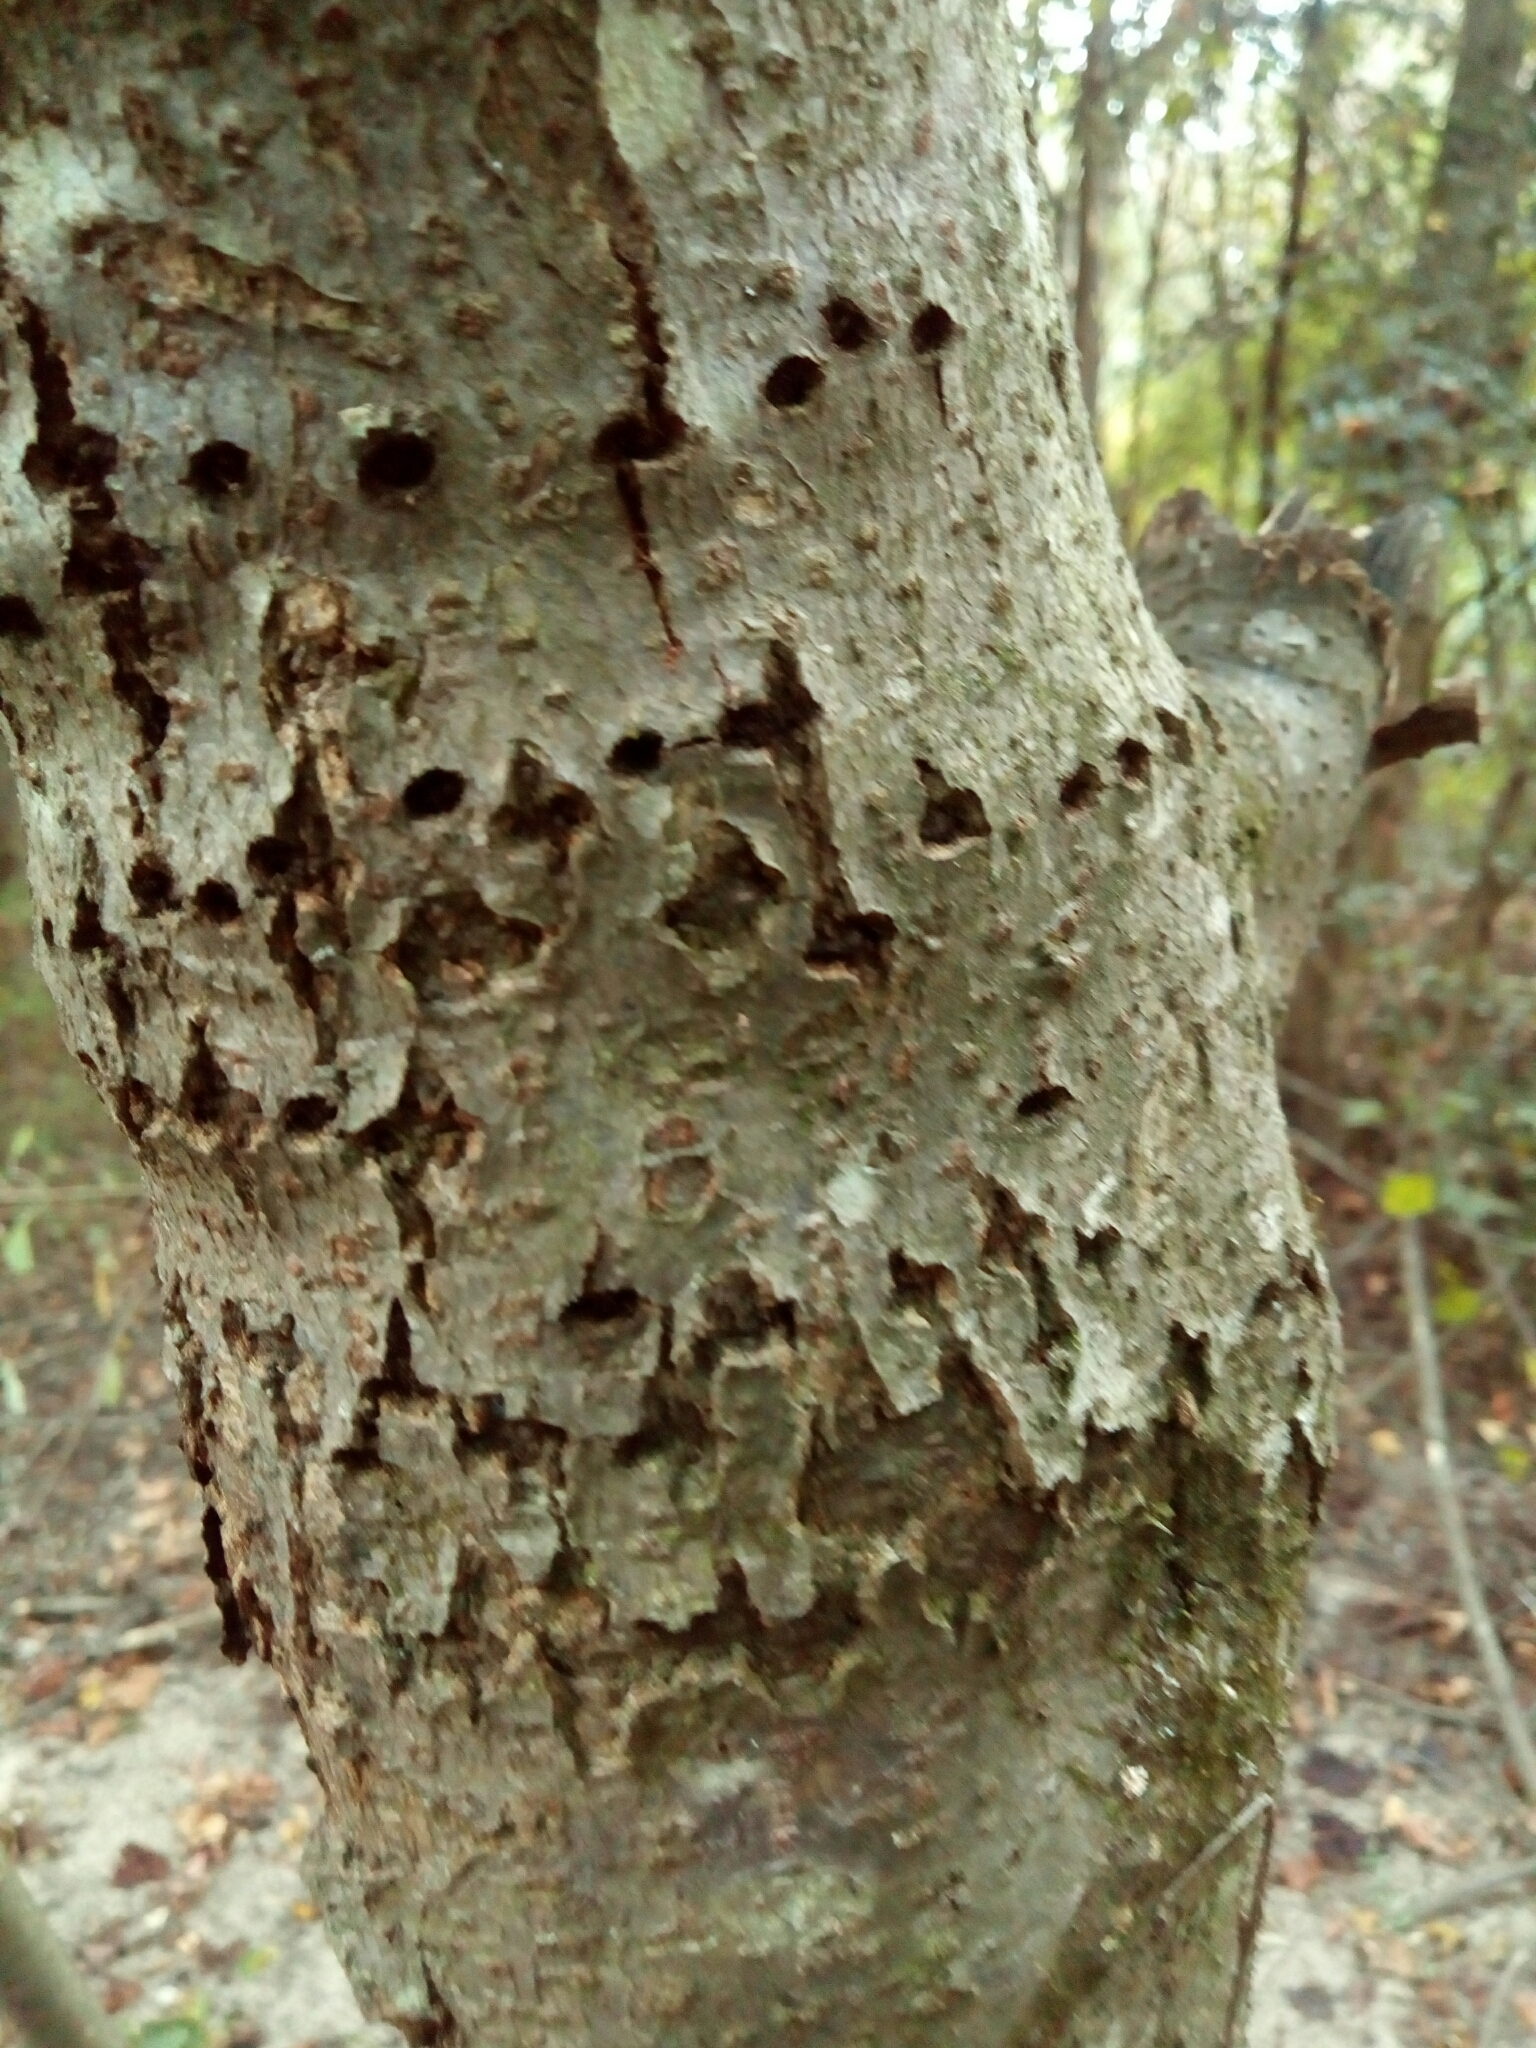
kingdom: Animalia
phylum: Chordata
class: Aves
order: Piciformes
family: Picidae
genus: Sphyrapicus
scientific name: Sphyrapicus varius
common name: Yellow-bellied sapsucker
